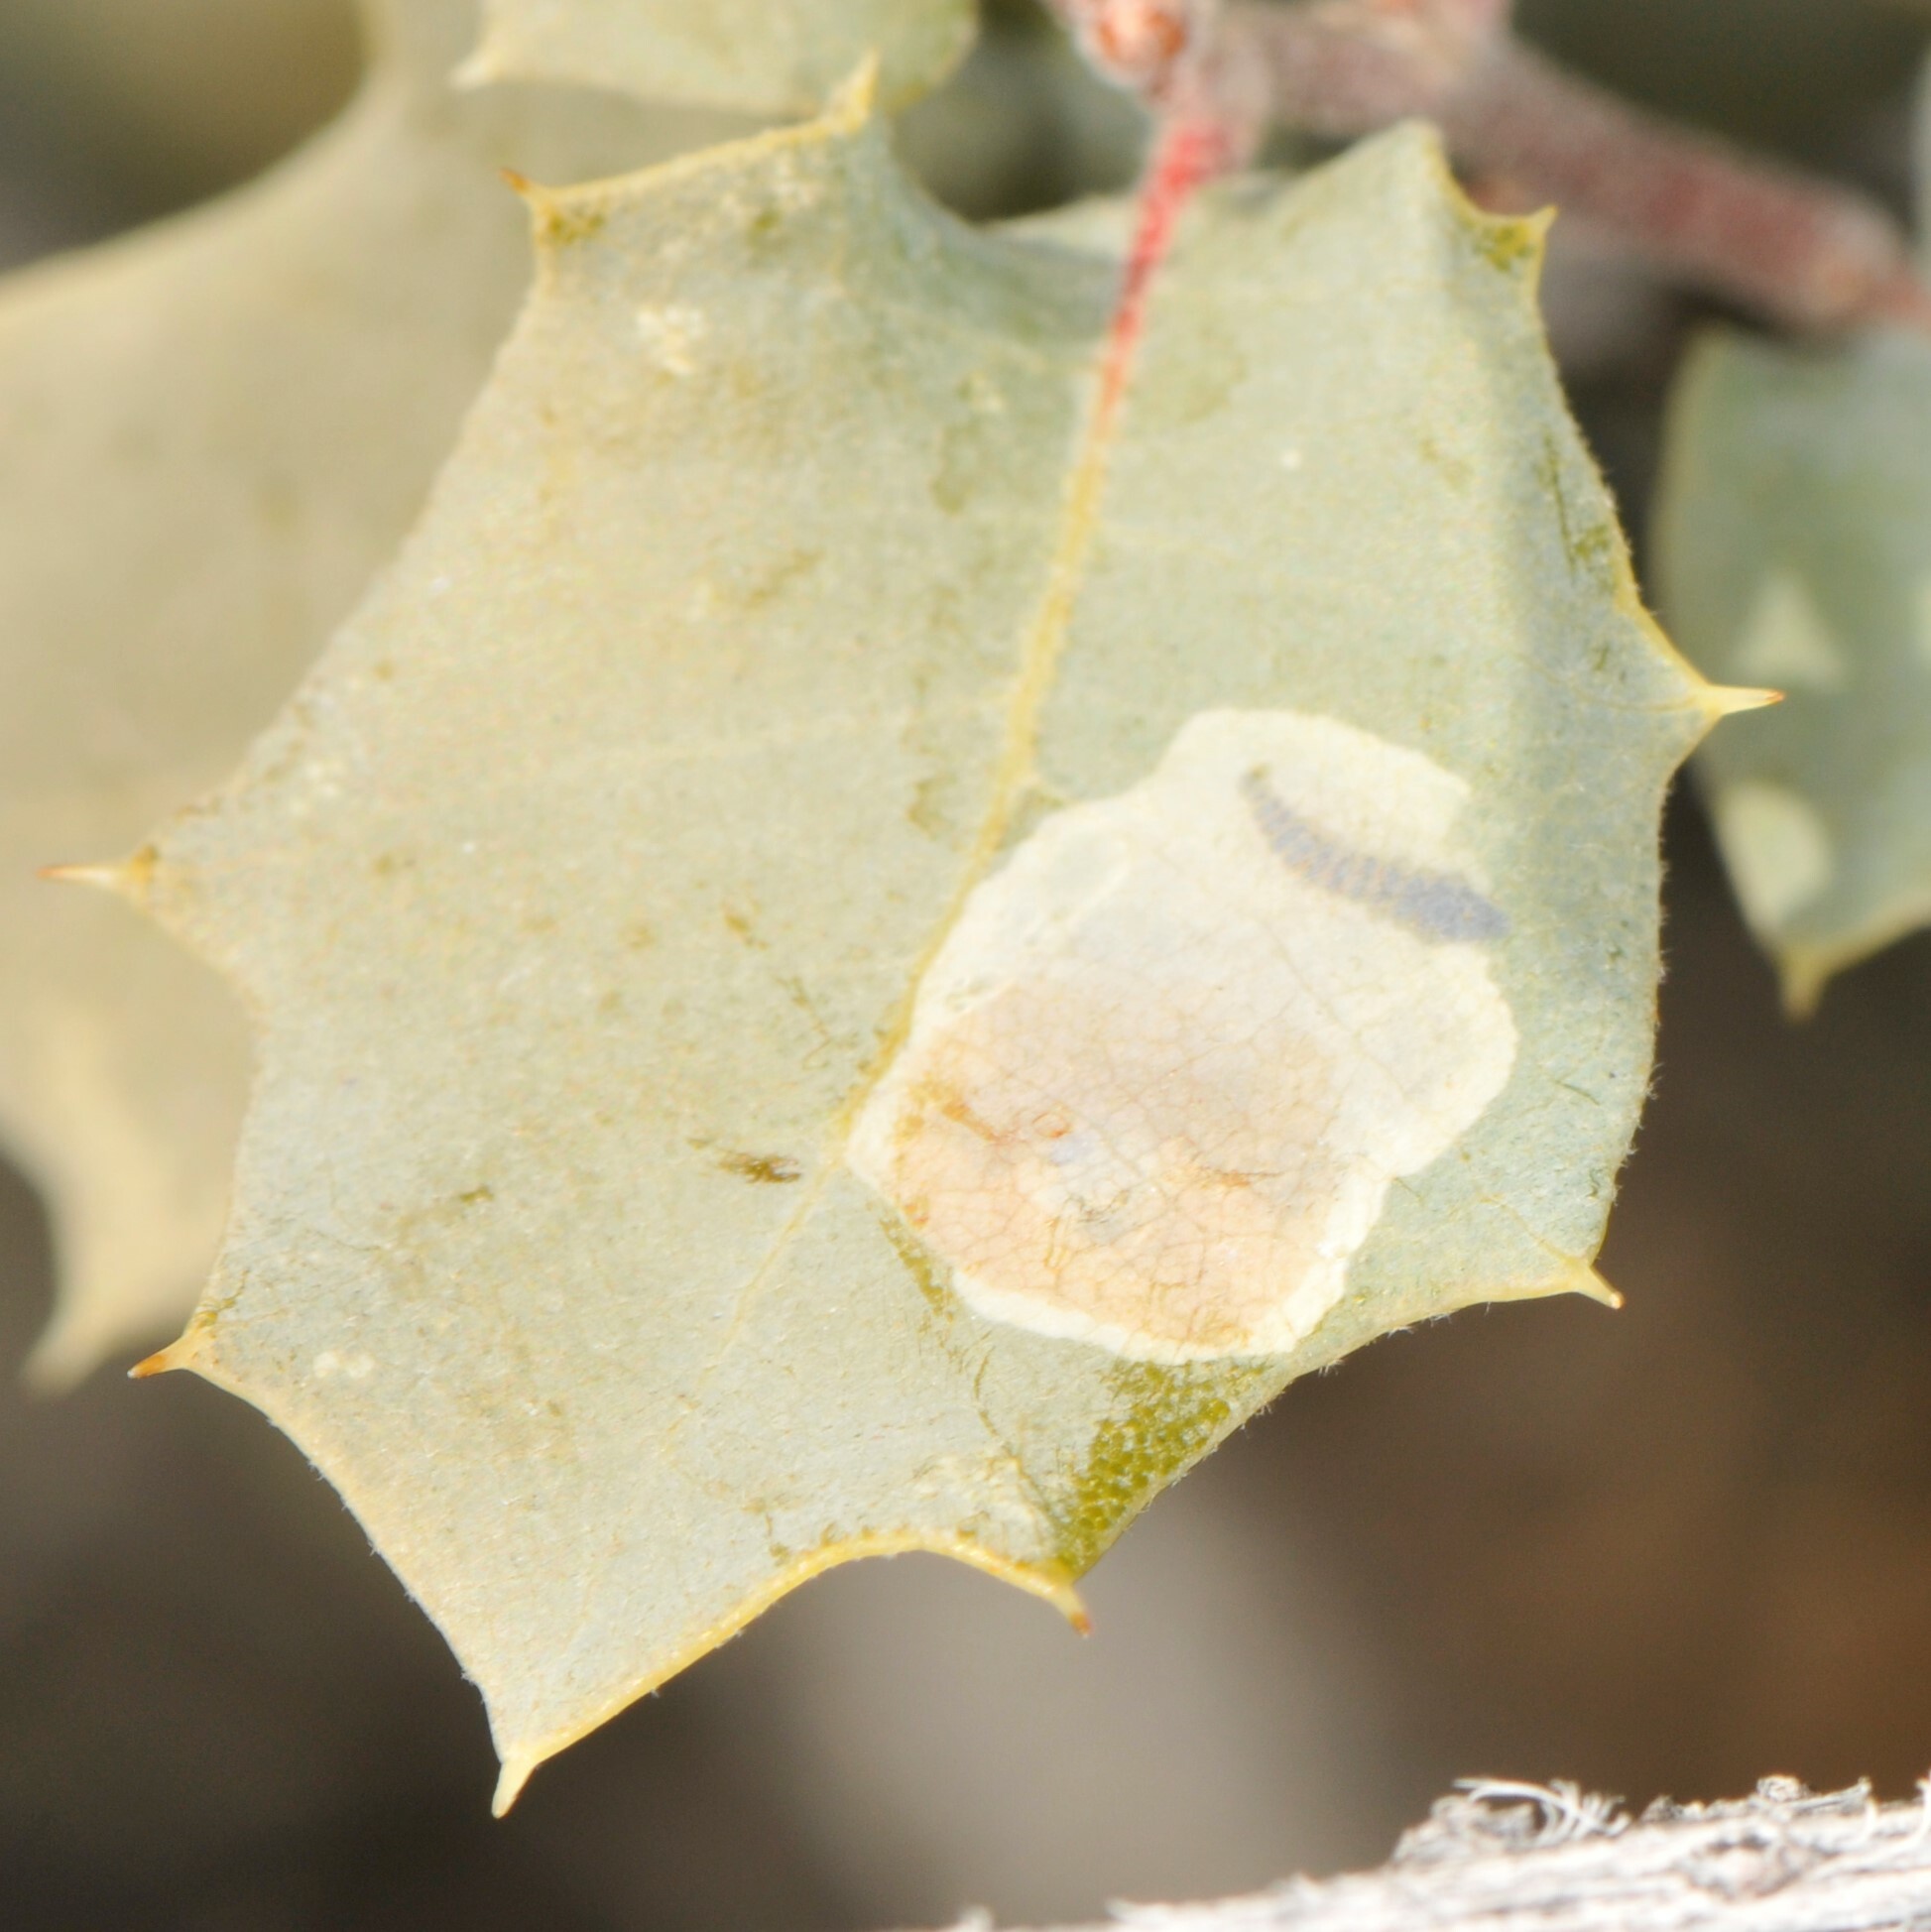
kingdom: Animalia
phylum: Arthropoda
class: Insecta
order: Lepidoptera
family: Gracillariidae
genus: Cameraria
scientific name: Cameraria
